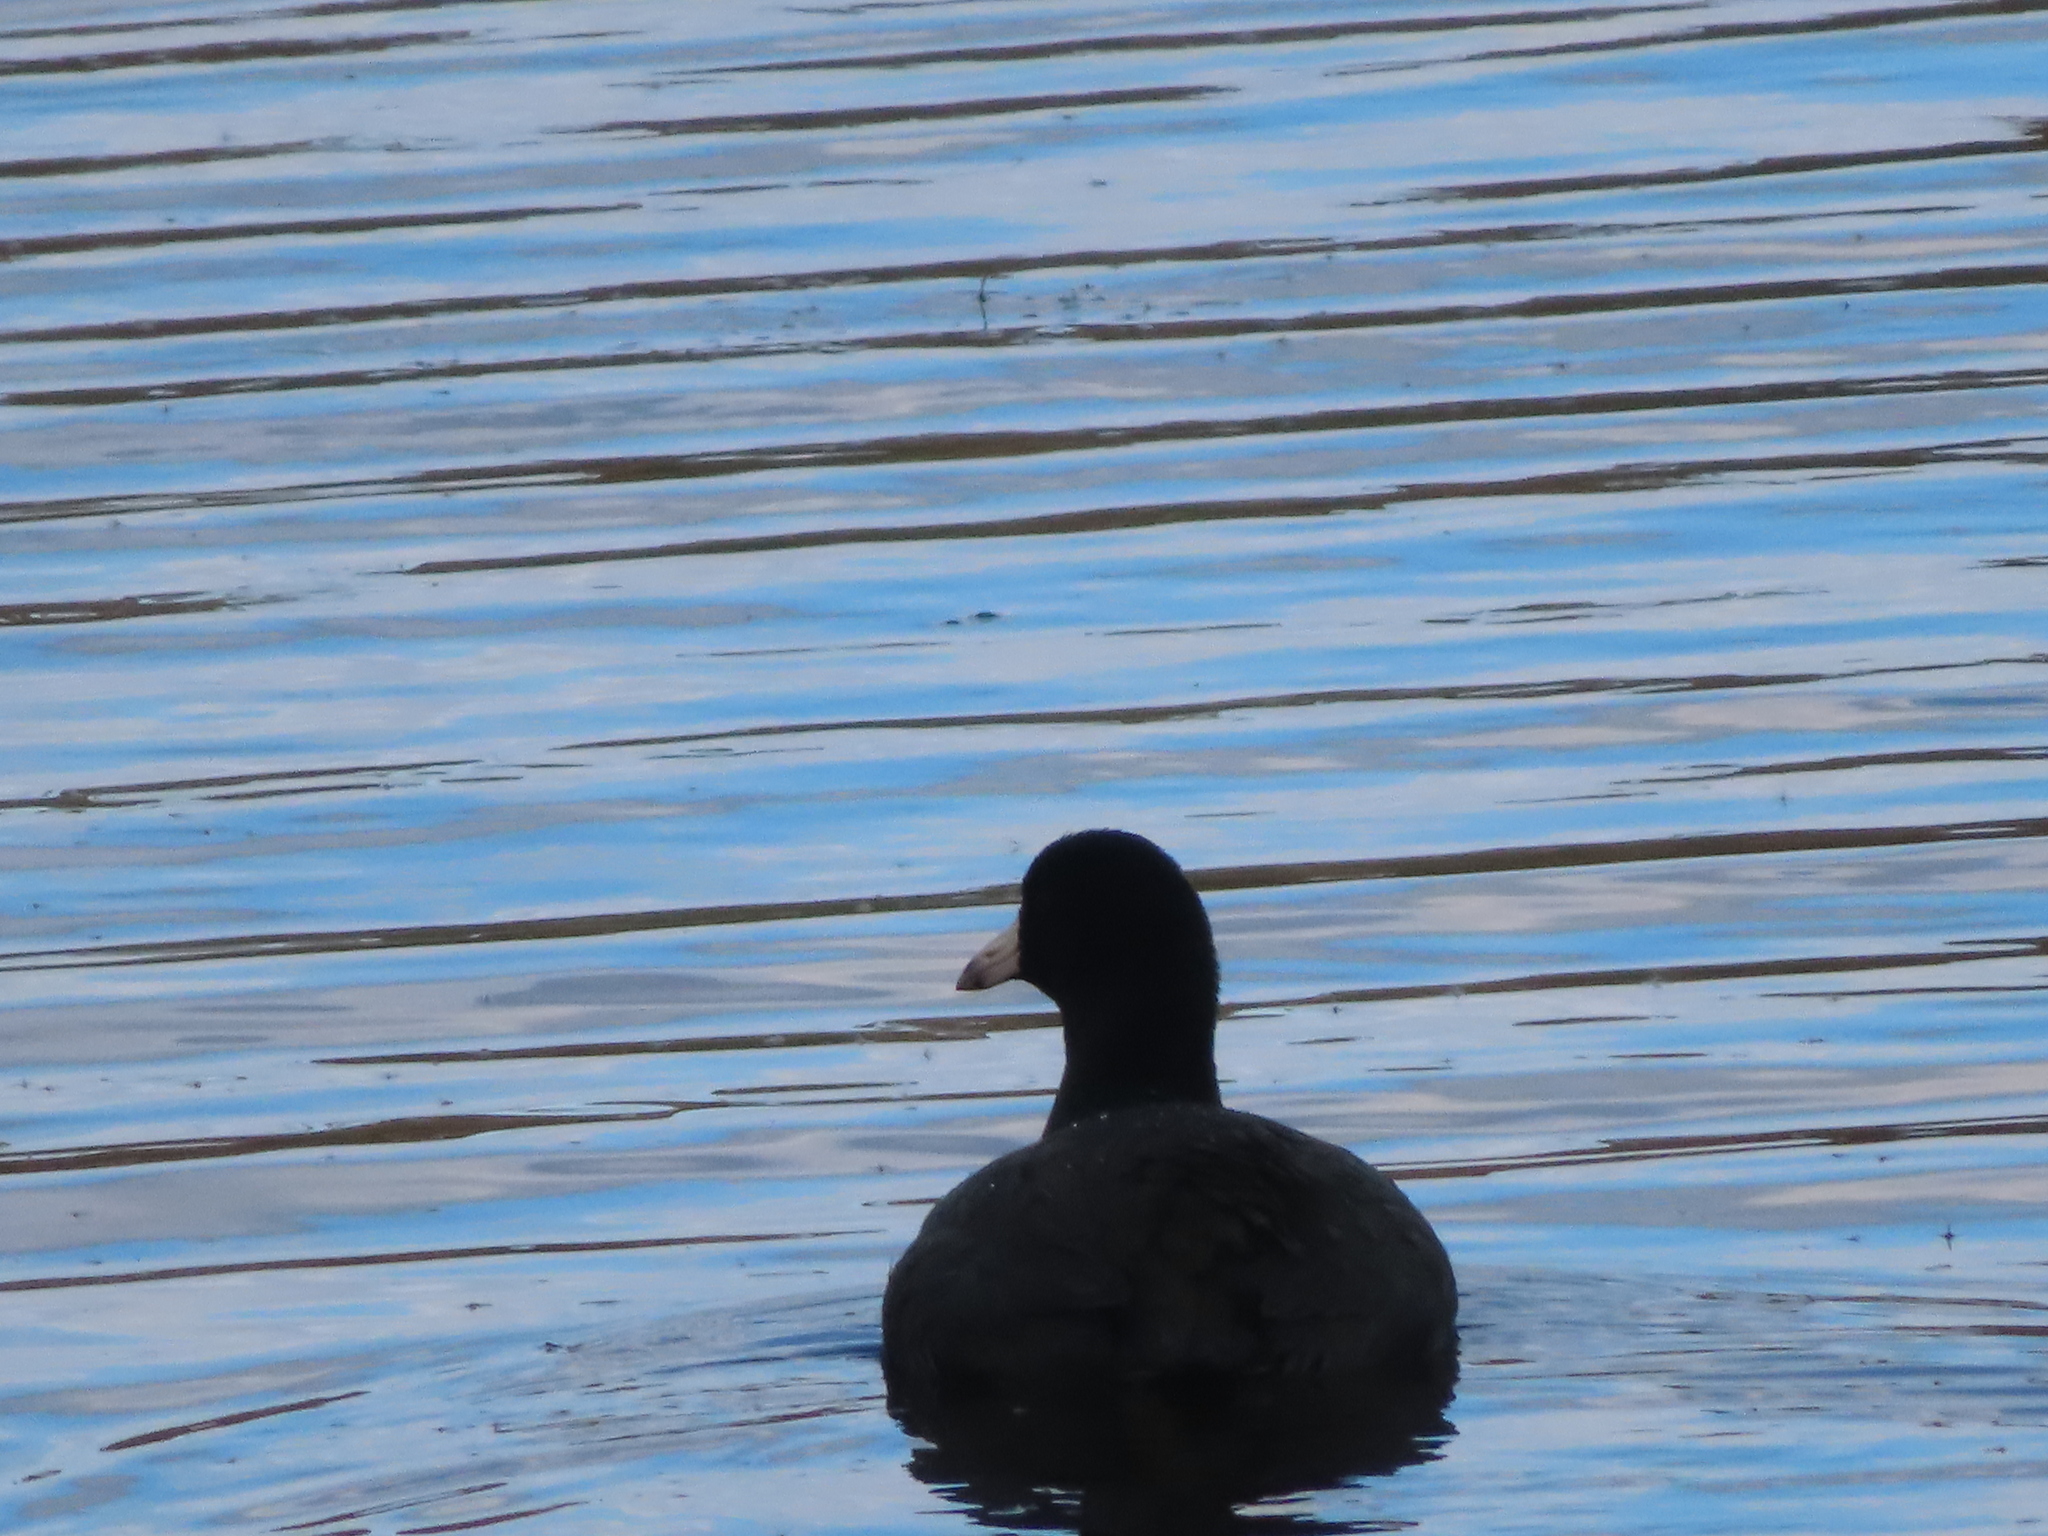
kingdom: Animalia
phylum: Chordata
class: Aves
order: Gruiformes
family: Rallidae
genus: Fulica
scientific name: Fulica americana
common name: American coot
